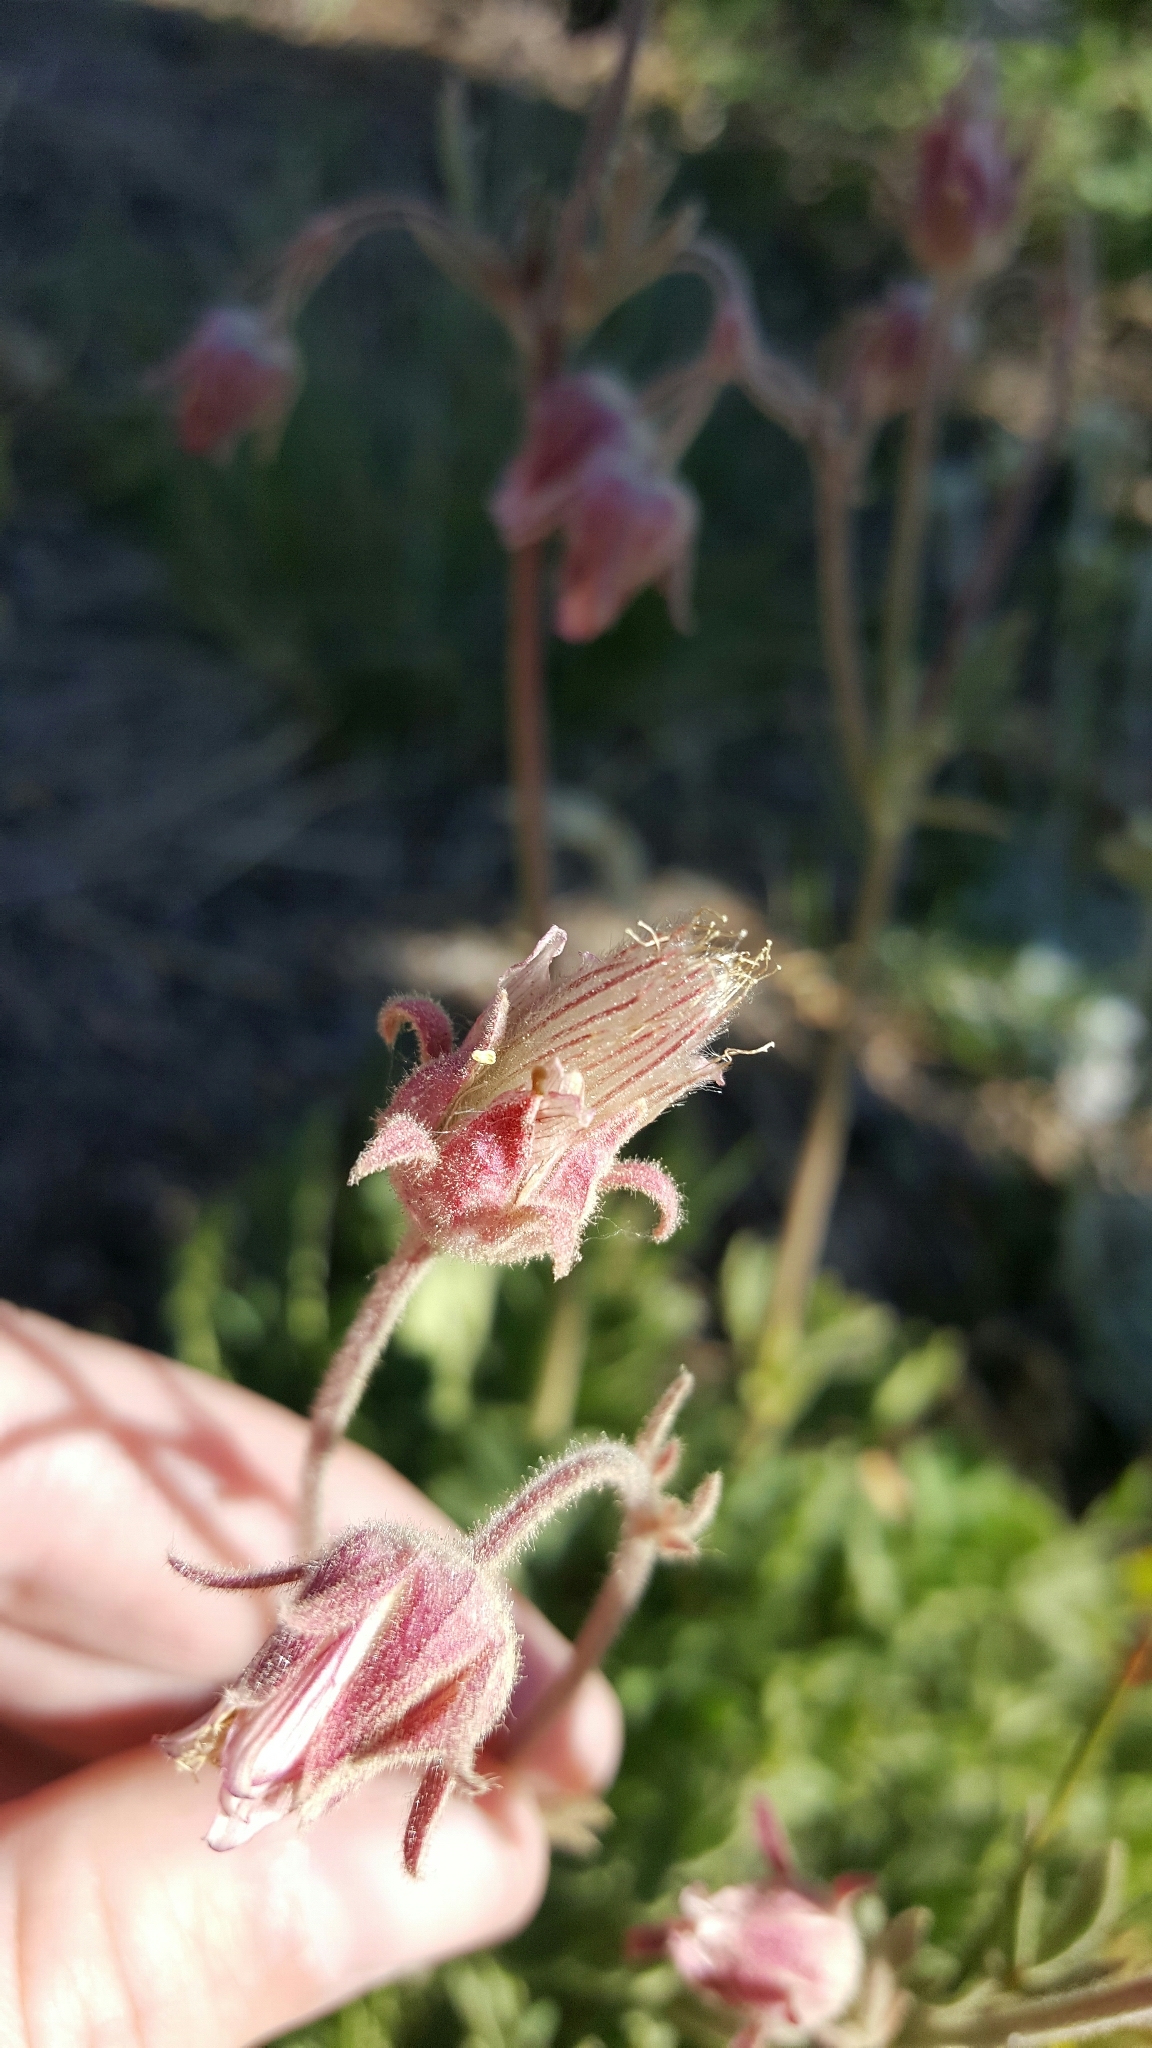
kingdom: Plantae
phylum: Tracheophyta
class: Magnoliopsida
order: Rosales
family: Rosaceae
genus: Geum
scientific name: Geum triflorum
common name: Old man's whiskers
